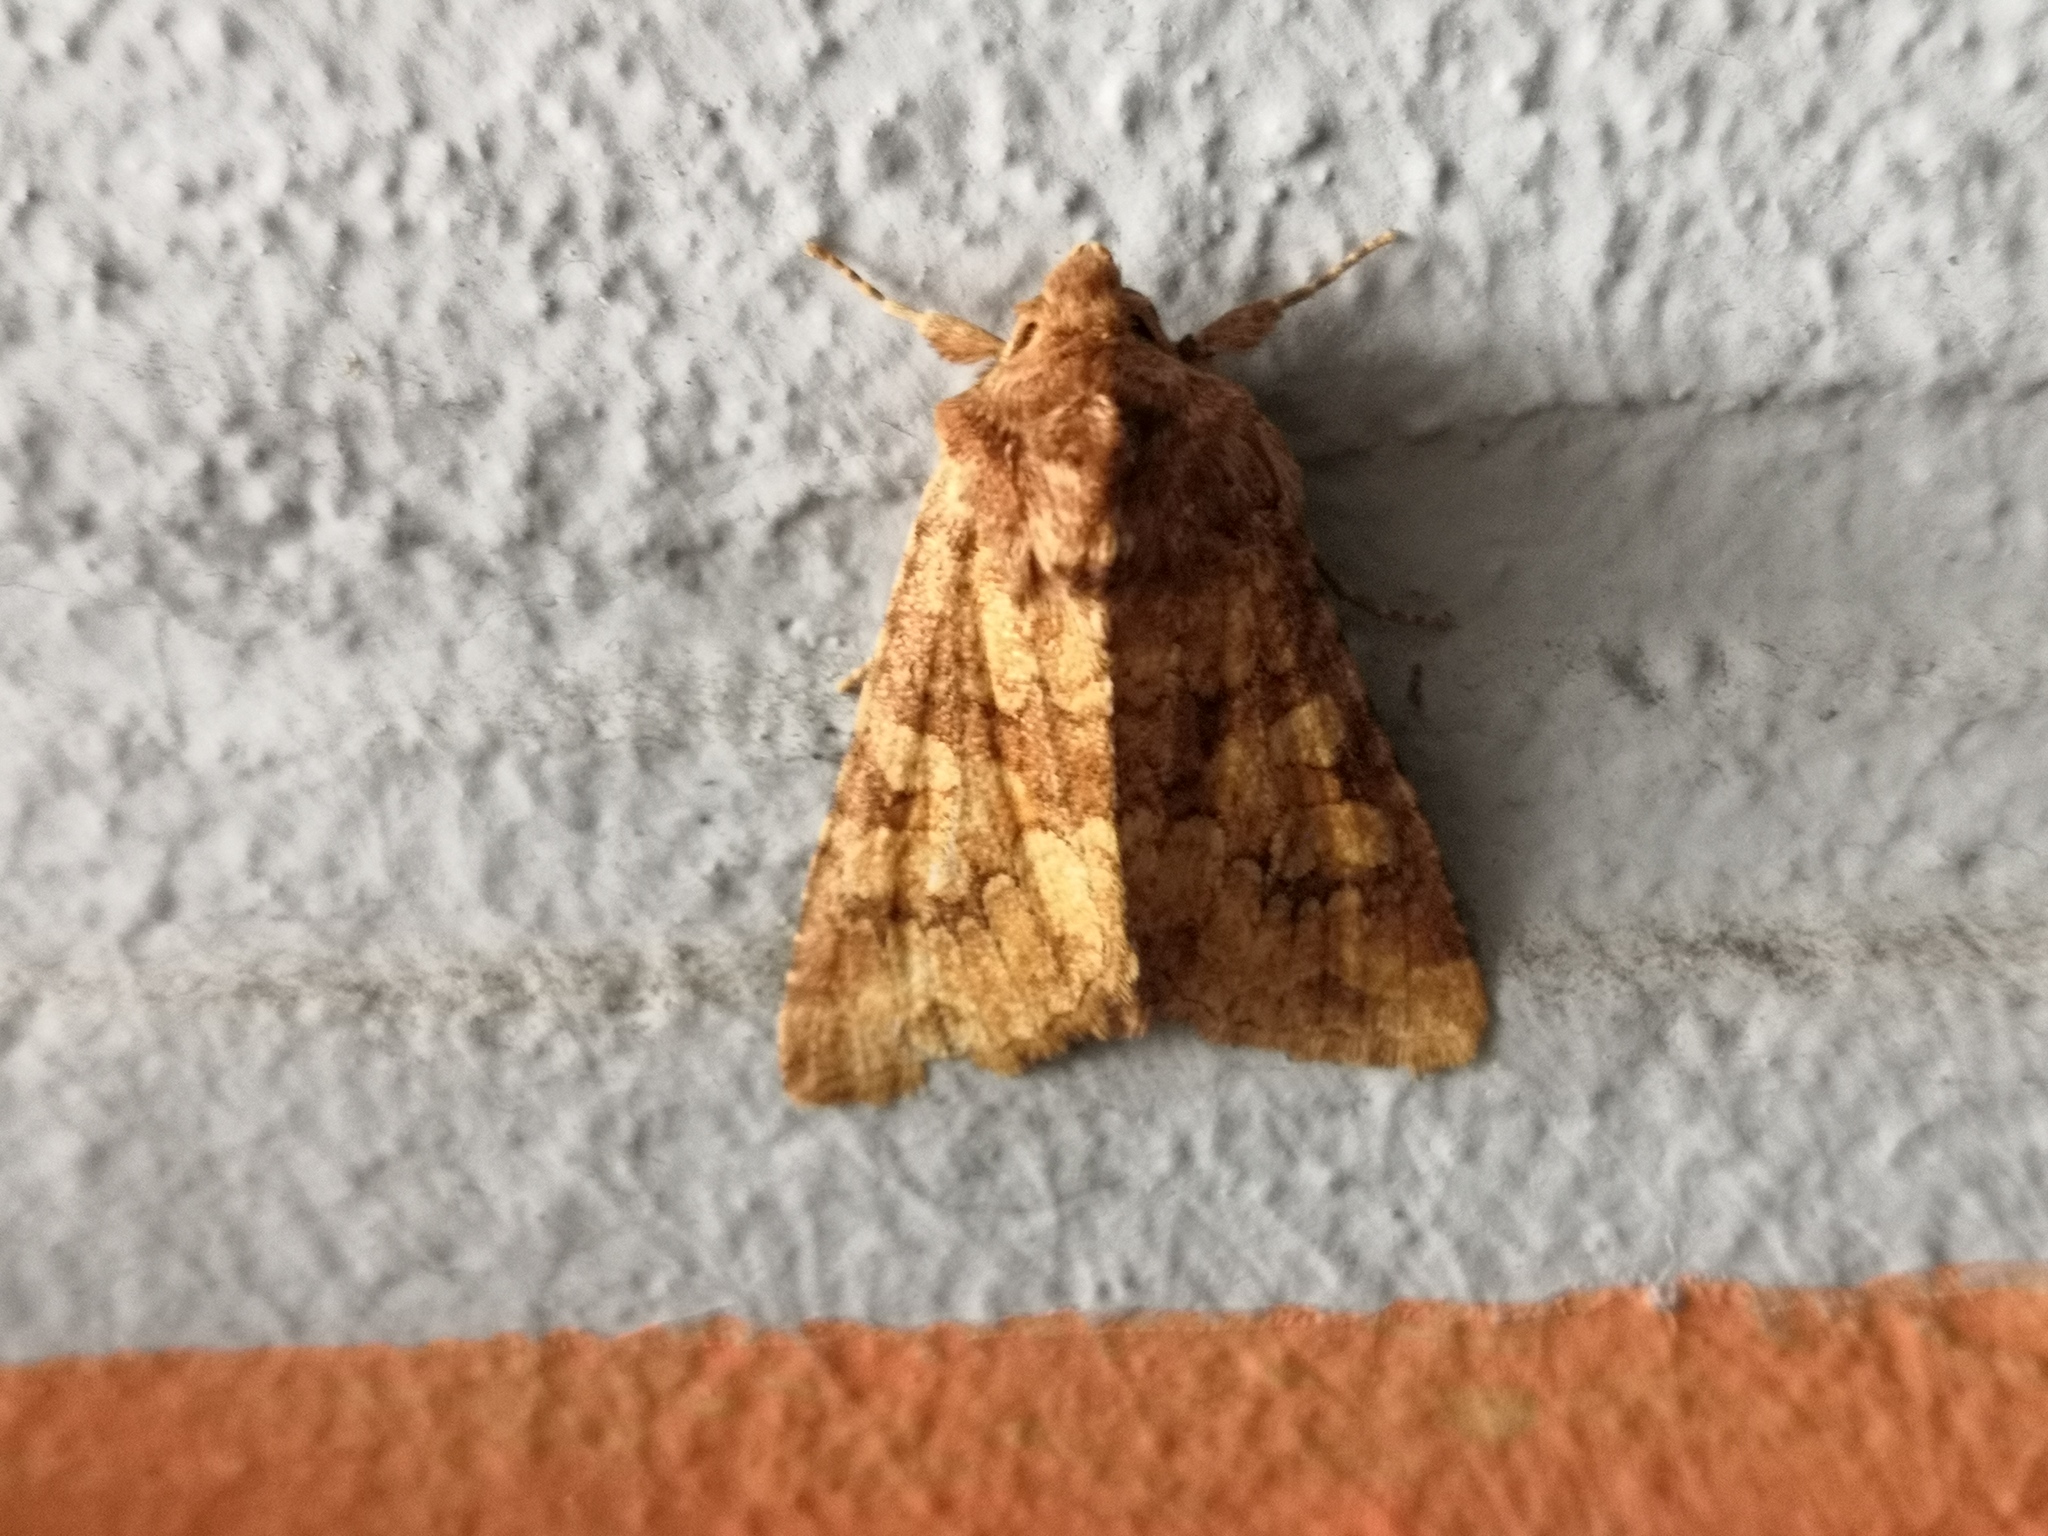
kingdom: Animalia
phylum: Arthropoda
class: Insecta
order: Lepidoptera
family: Noctuidae
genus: Conisania
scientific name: Conisania luteago
